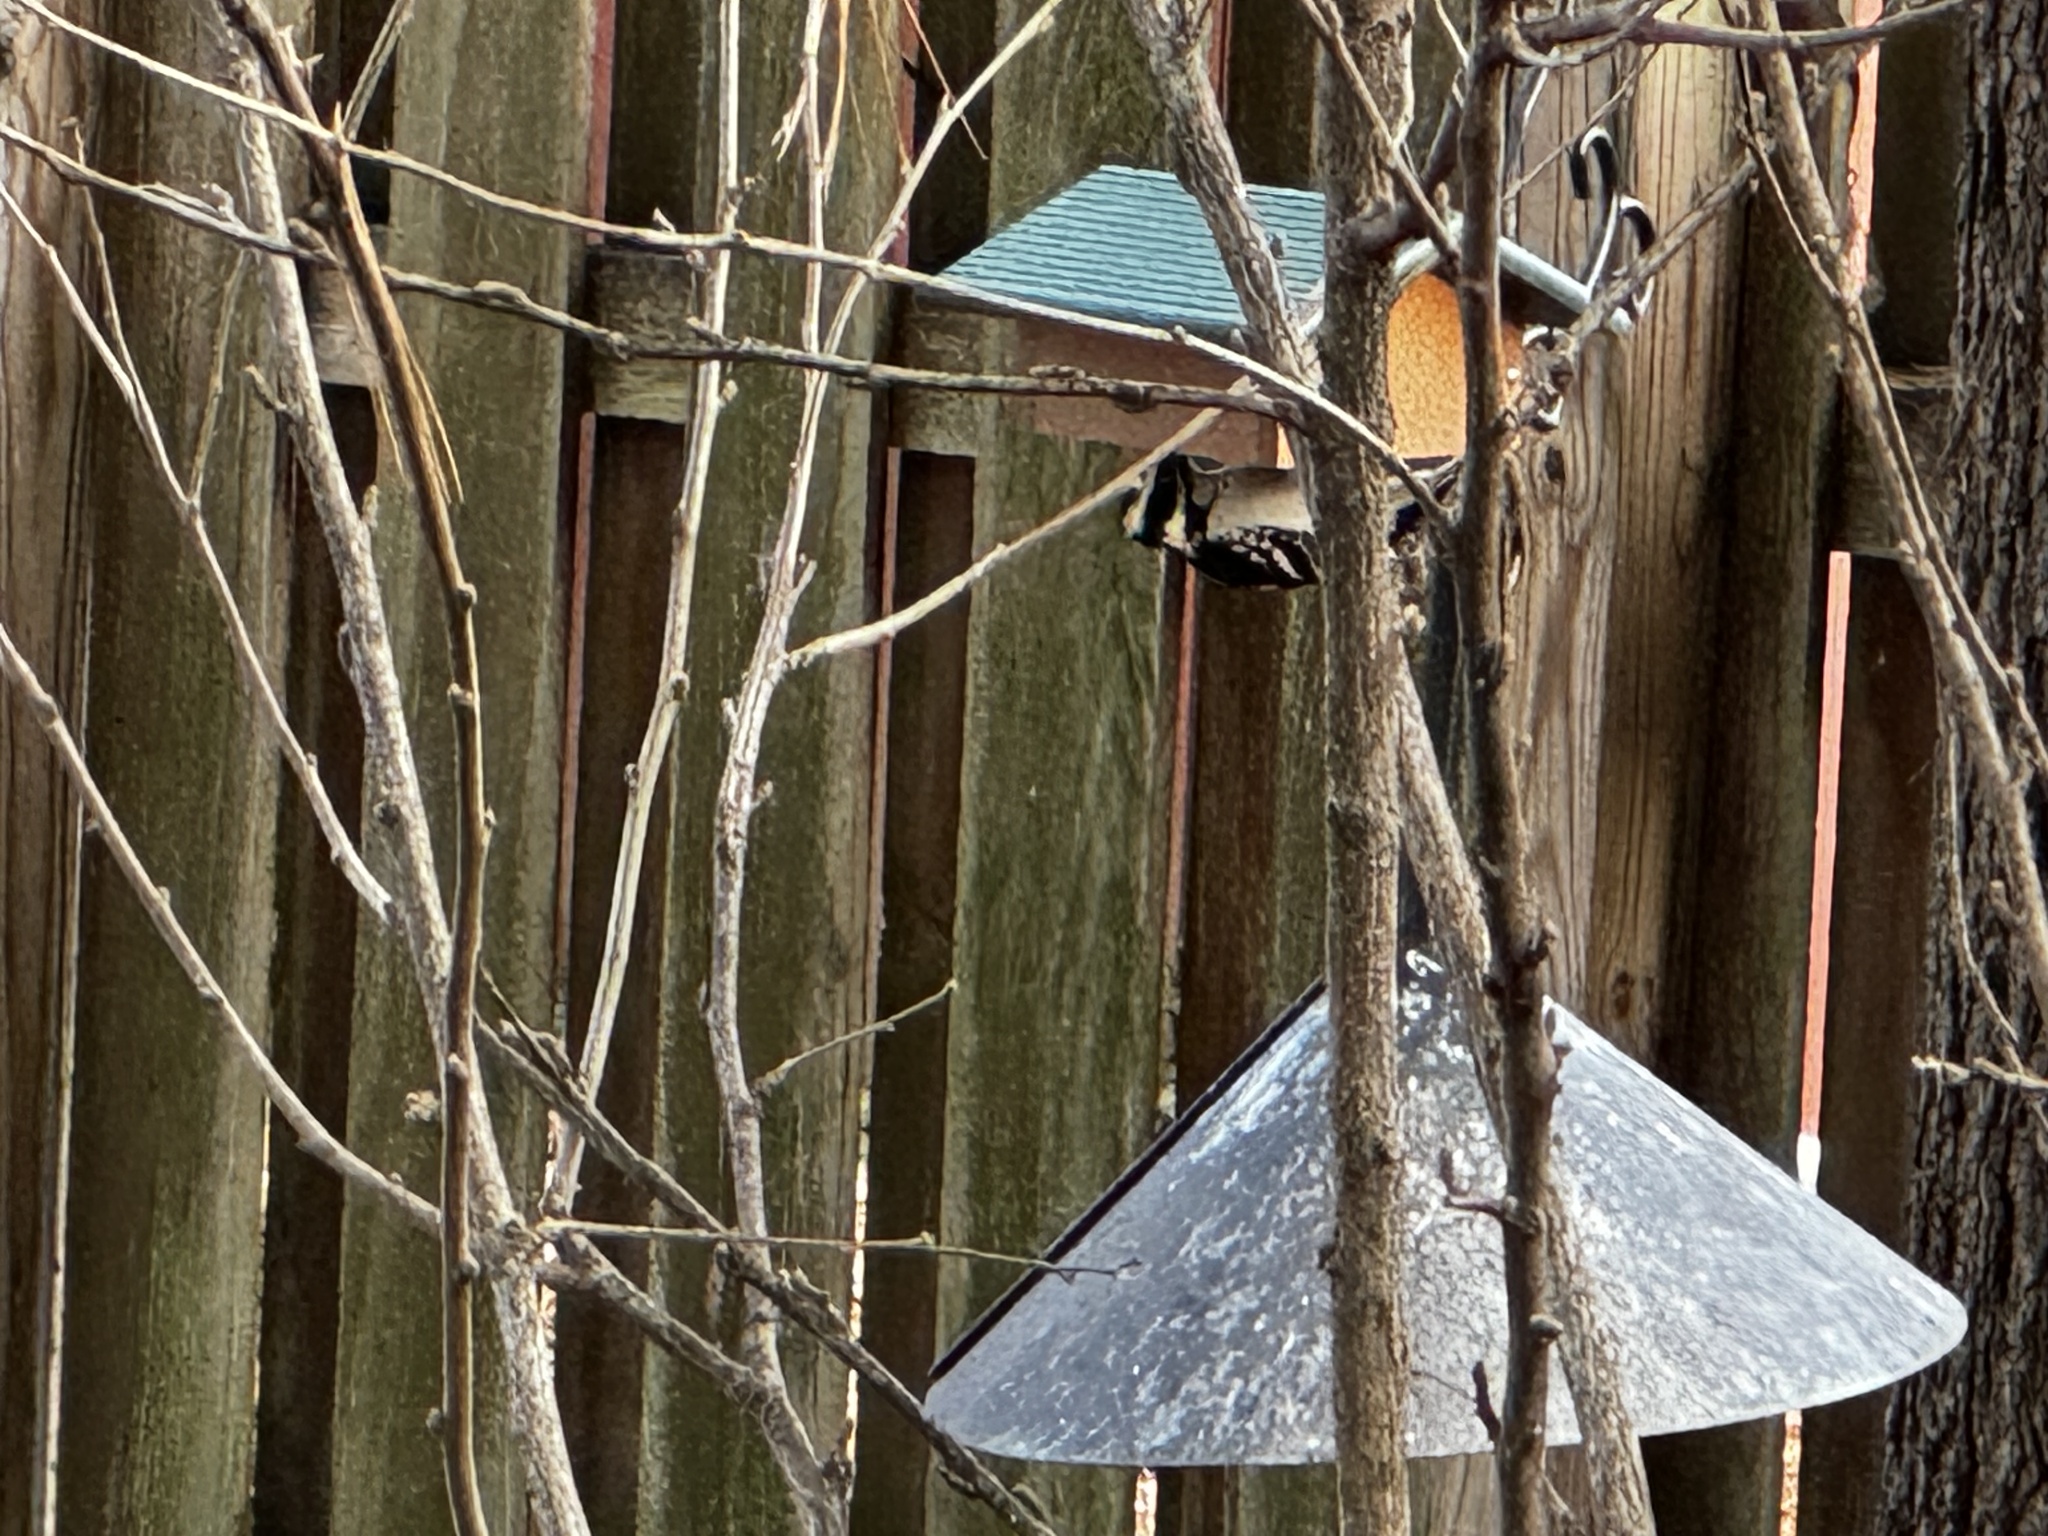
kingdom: Animalia
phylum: Chordata
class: Aves
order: Piciformes
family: Picidae
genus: Leuconotopicus
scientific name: Leuconotopicus villosus
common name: Hairy woodpecker
